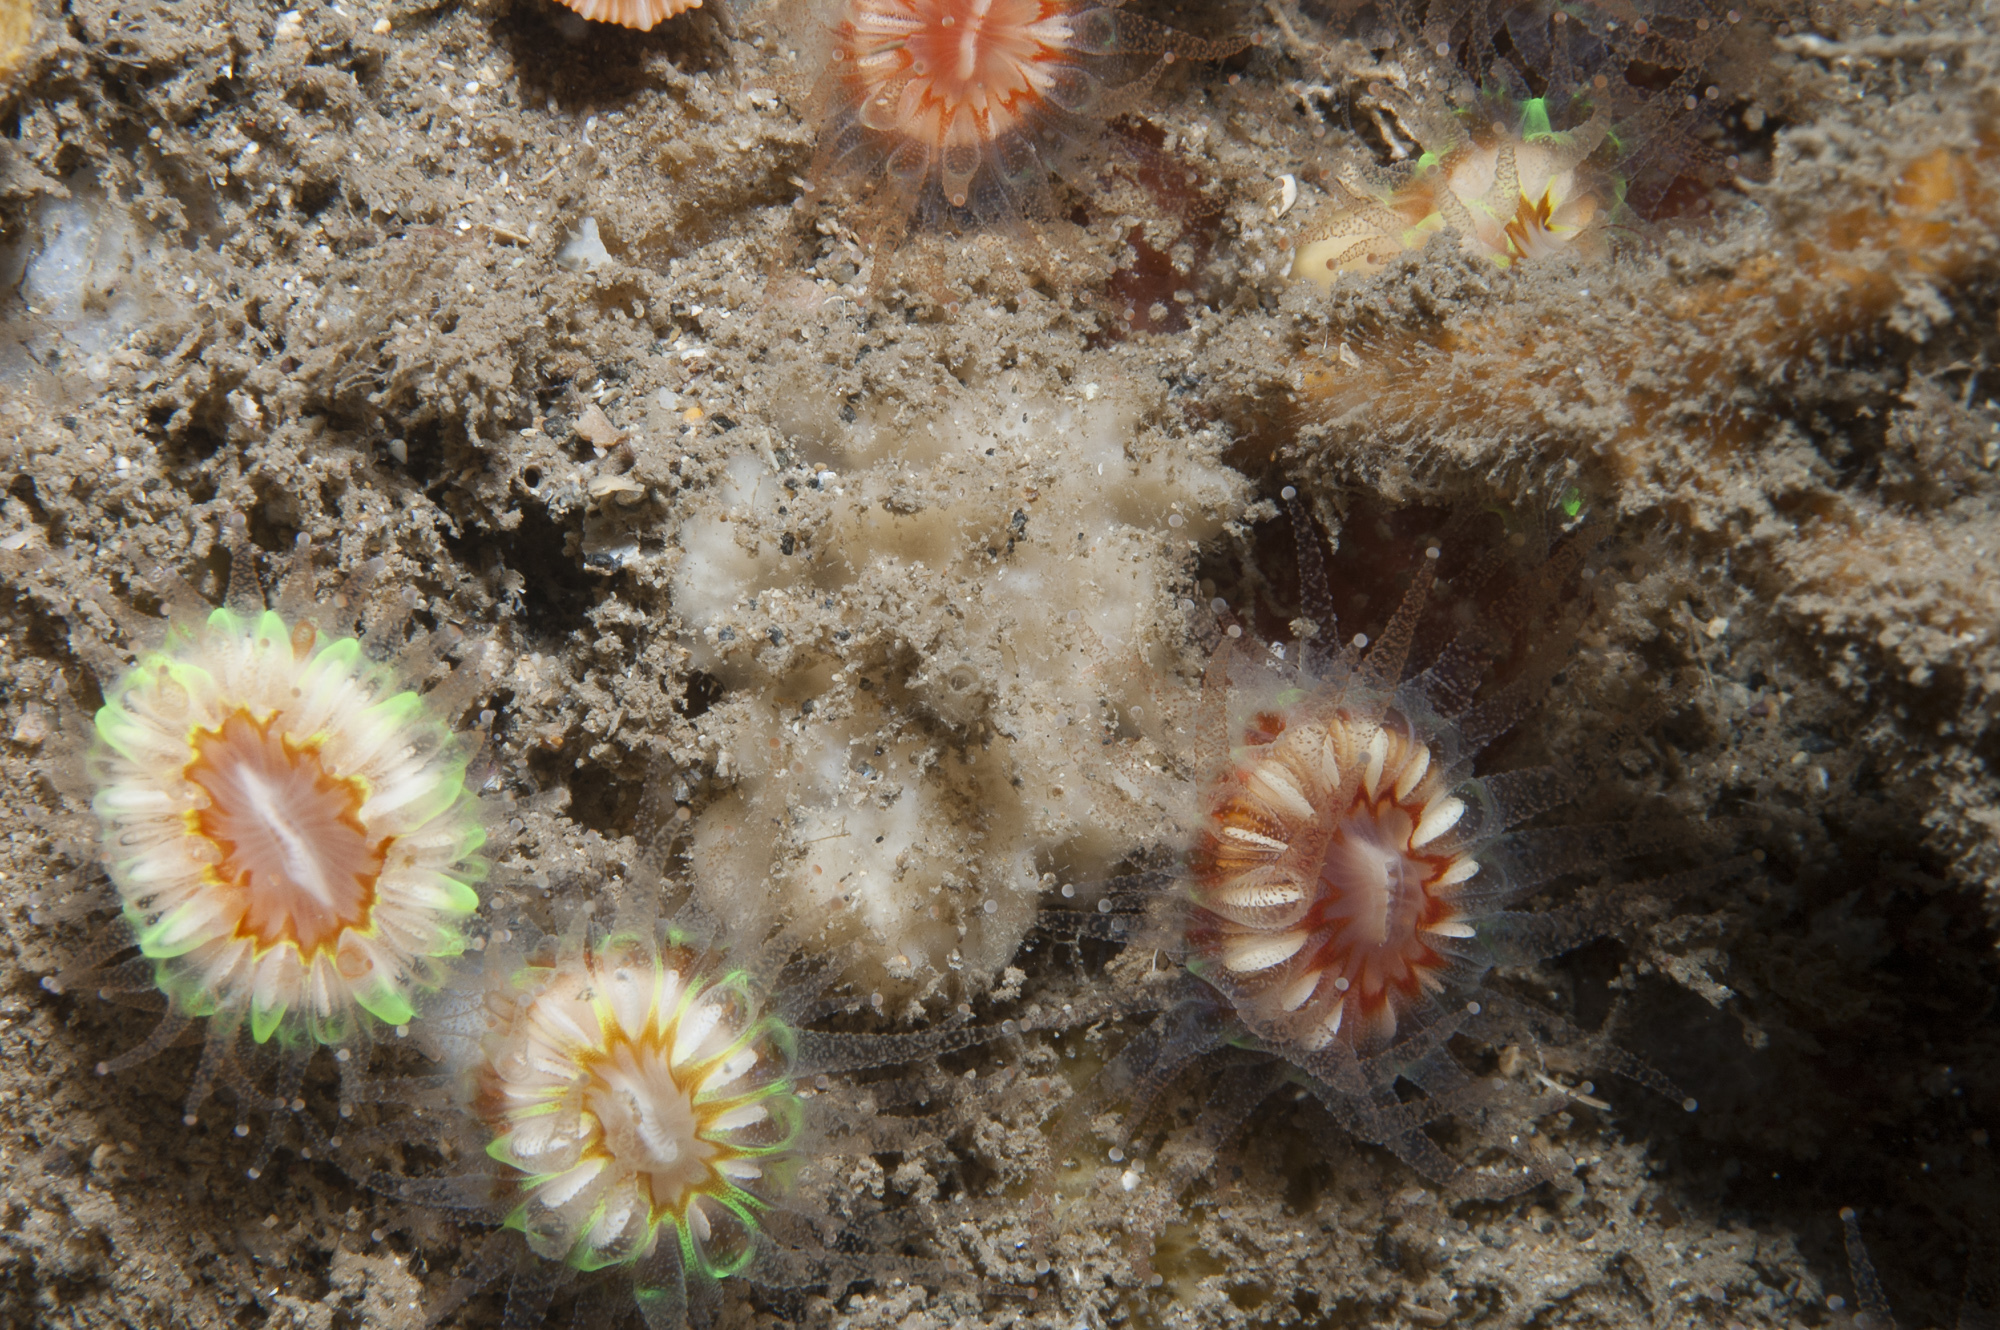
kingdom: Animalia
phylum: Porifera
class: Demospongiae
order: Axinellida
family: Axinellidae
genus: Axinella
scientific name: Axinella pyramidata
